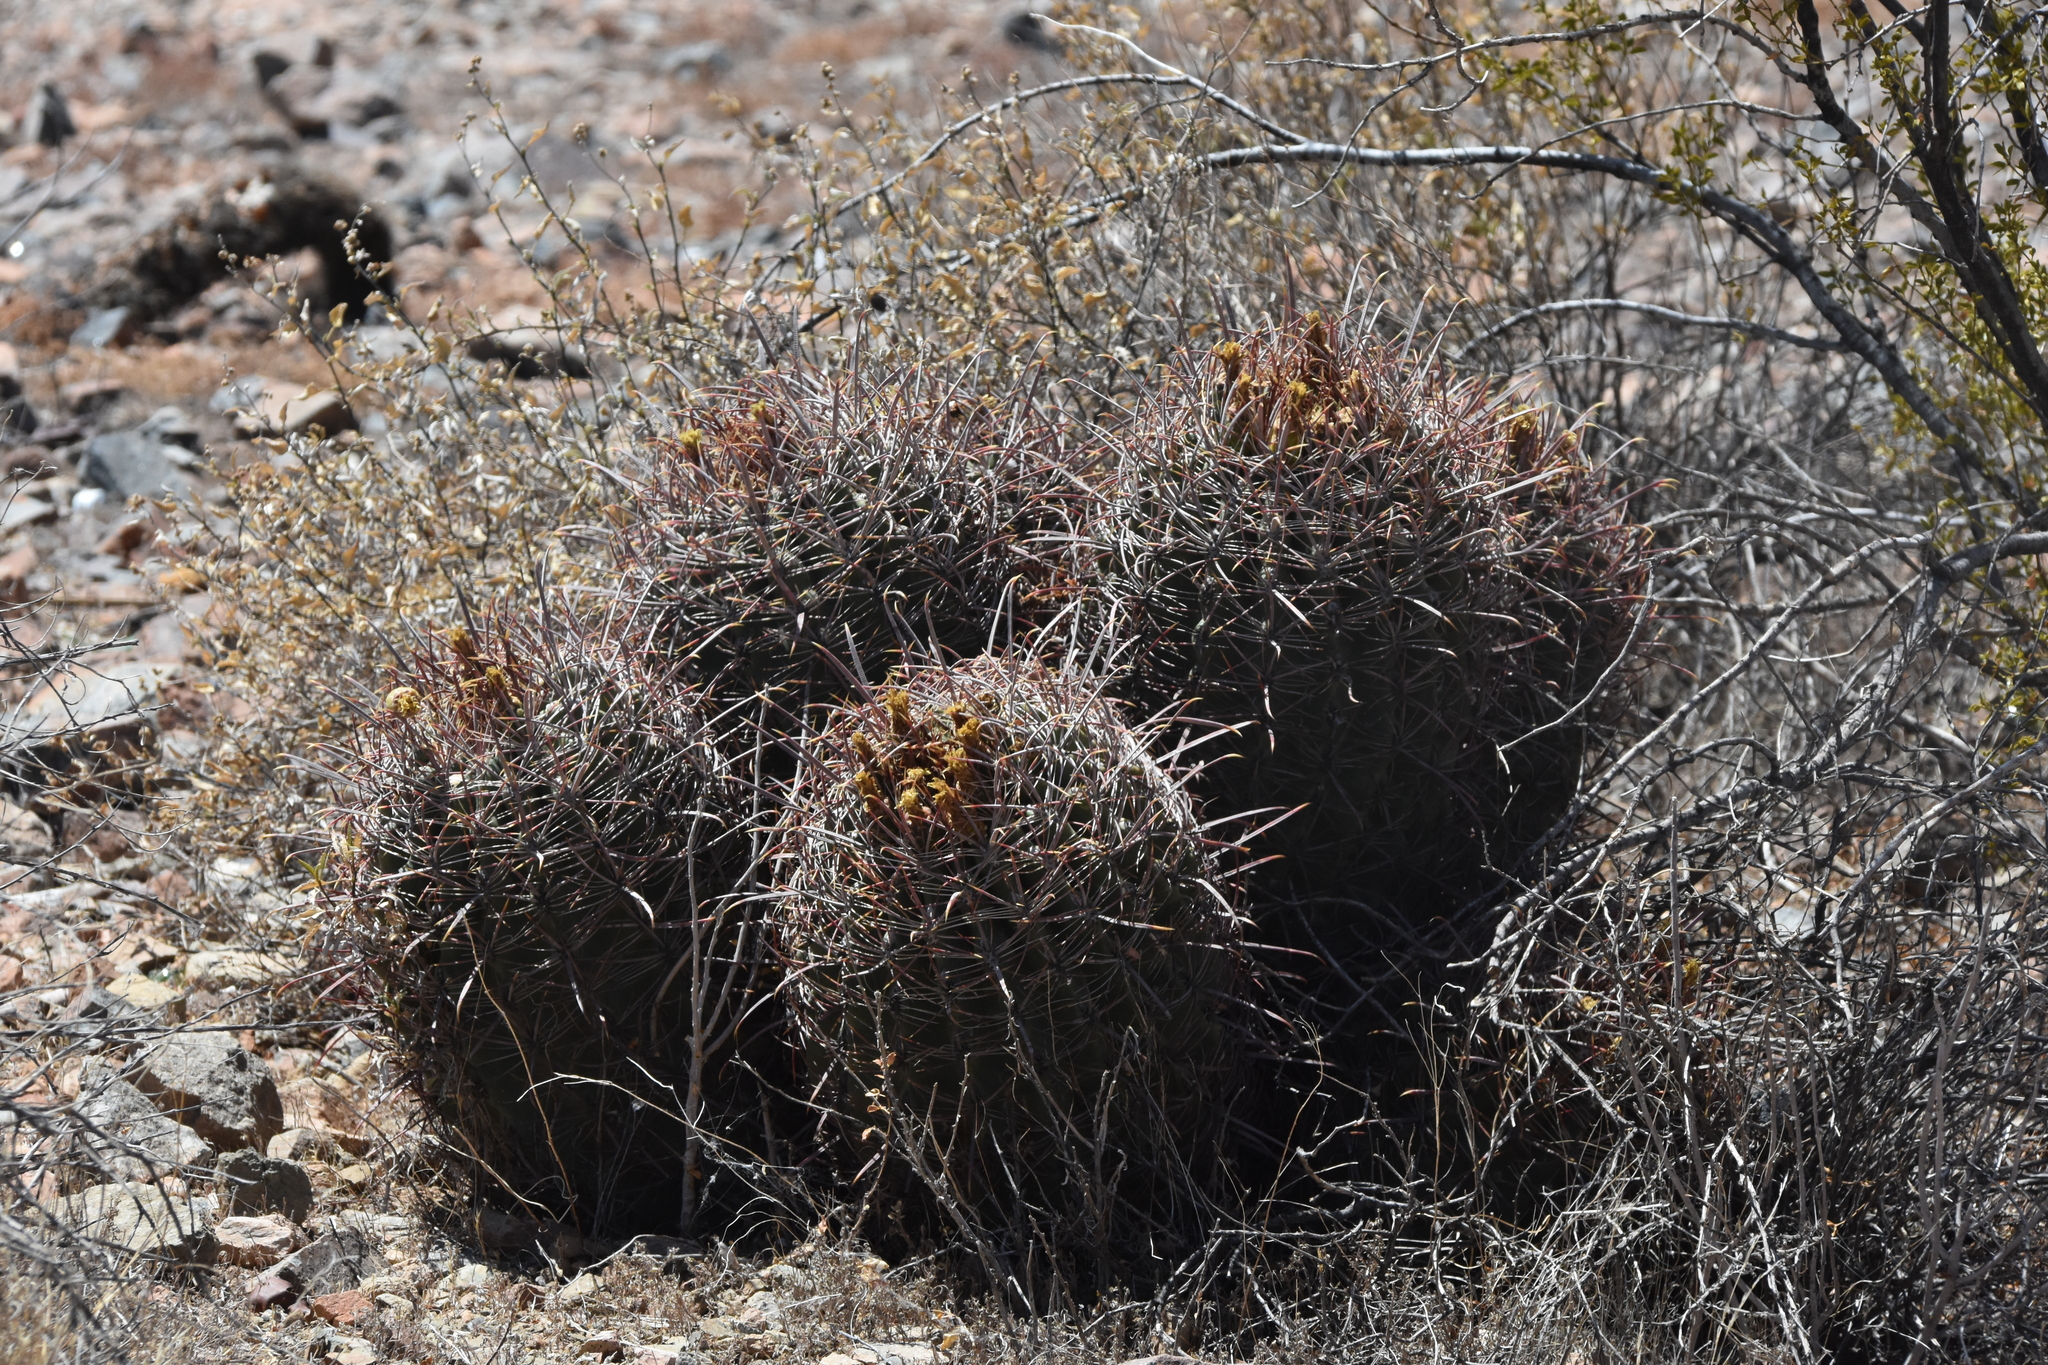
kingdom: Plantae
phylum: Tracheophyta
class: Magnoliopsida
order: Caryophyllales
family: Cactaceae
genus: Ferocactus
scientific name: Ferocactus cylindraceus
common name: California barrel cactus
